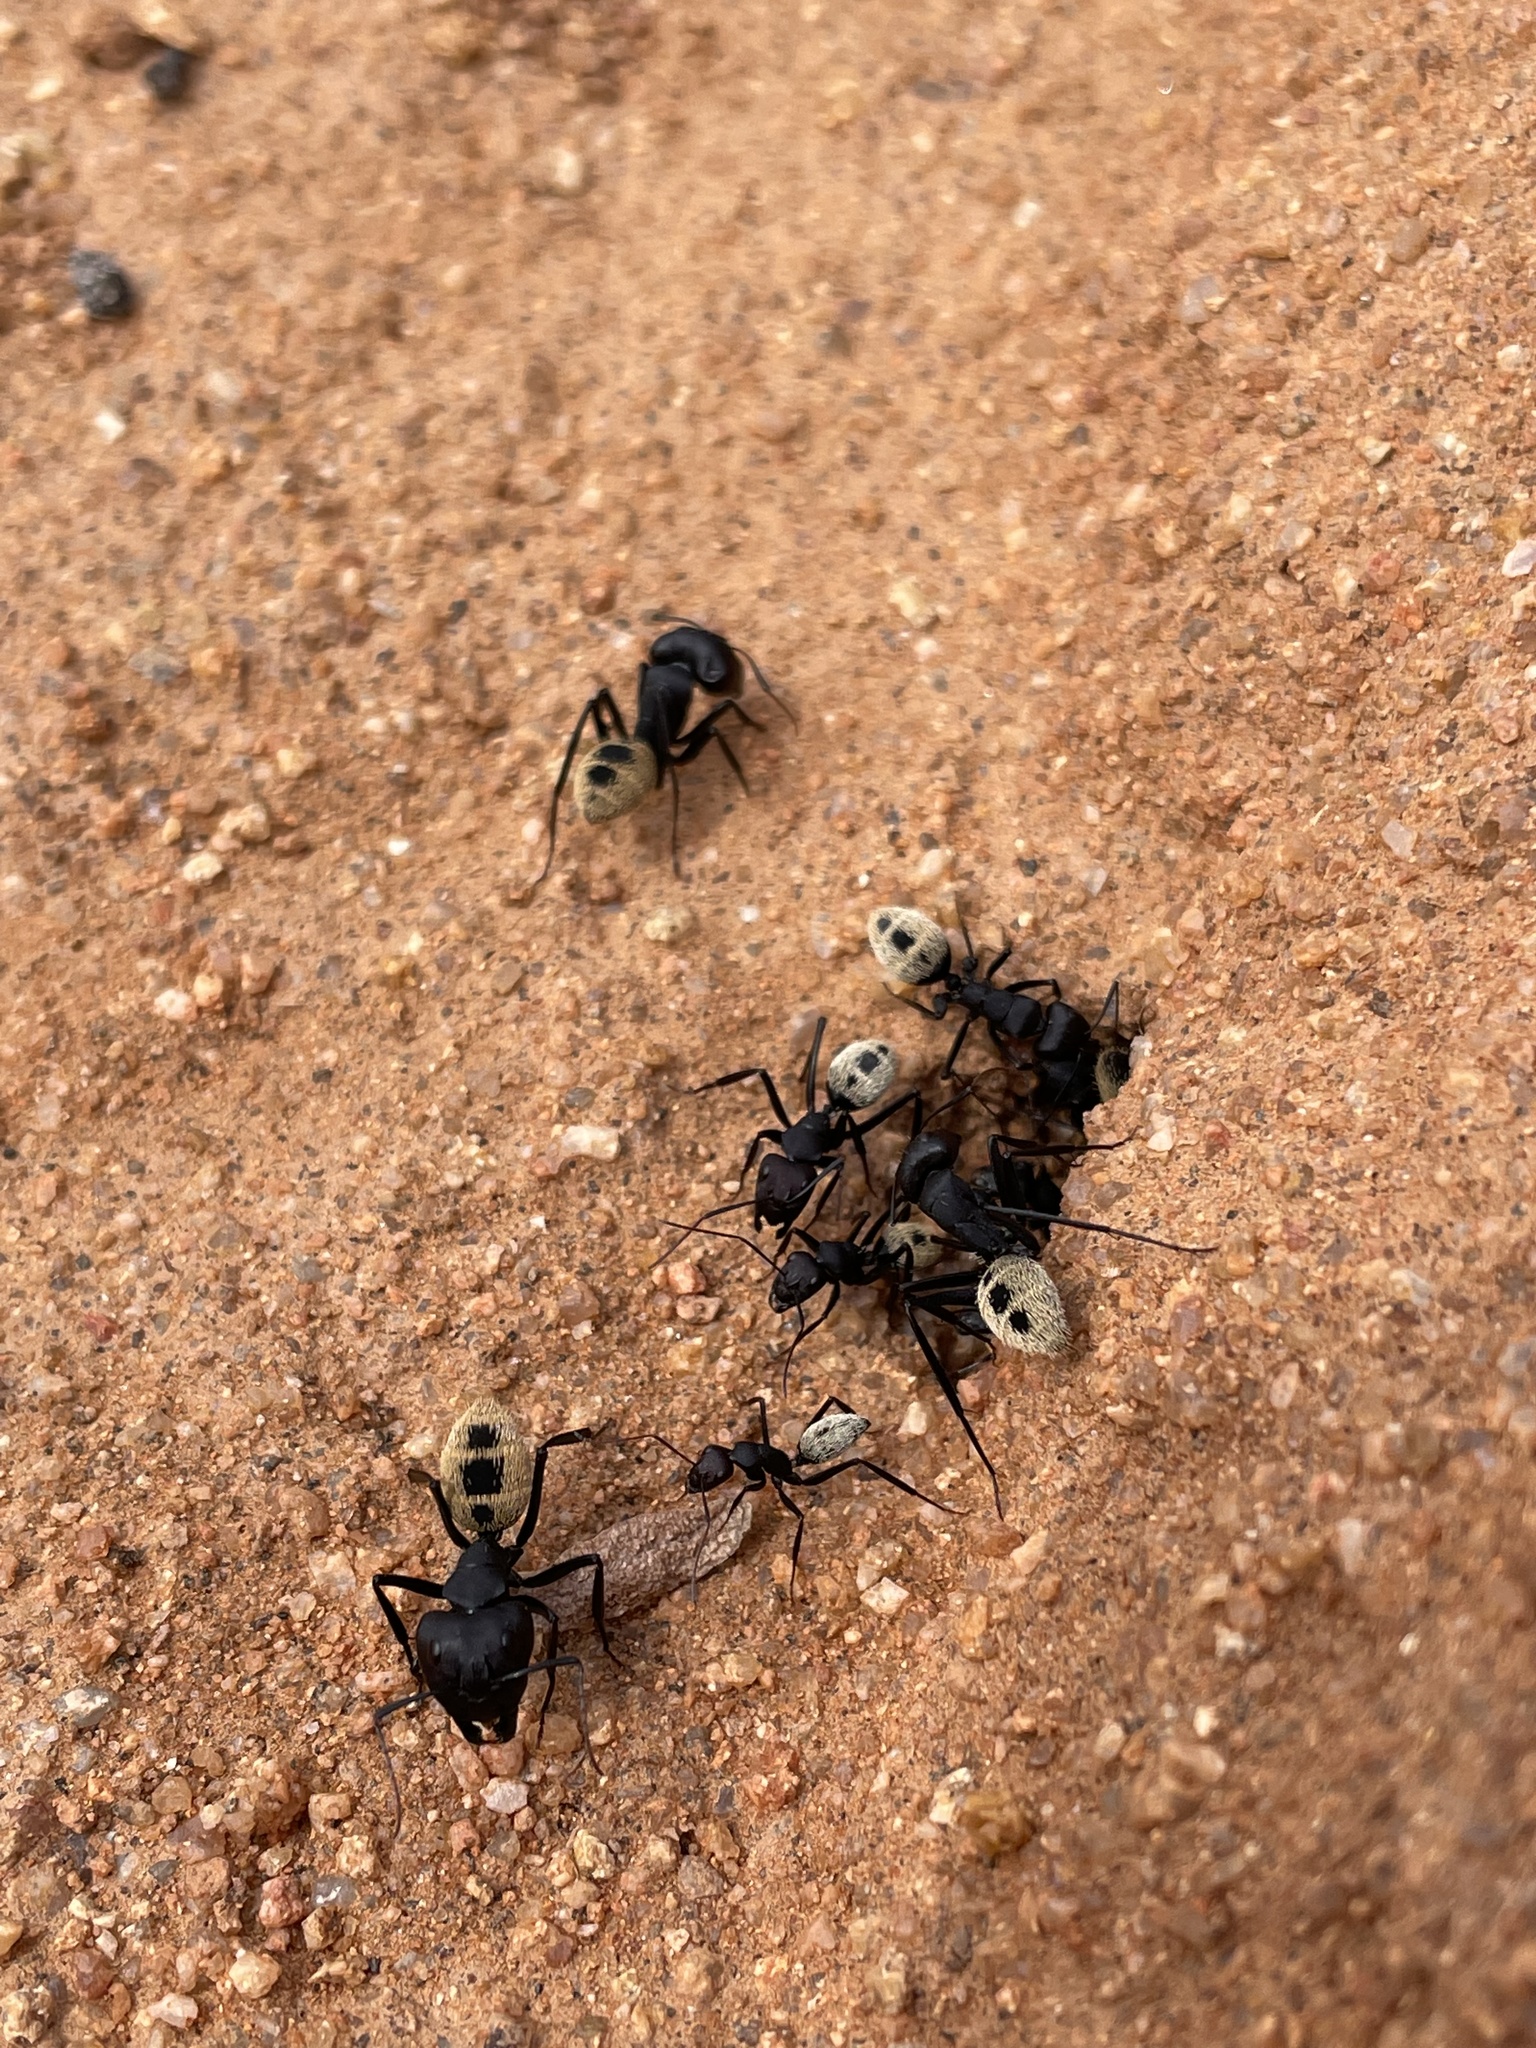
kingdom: Animalia
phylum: Arthropoda
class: Insecta
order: Hymenoptera
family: Formicidae
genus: Camponotus
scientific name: Camponotus fulvopilosus
